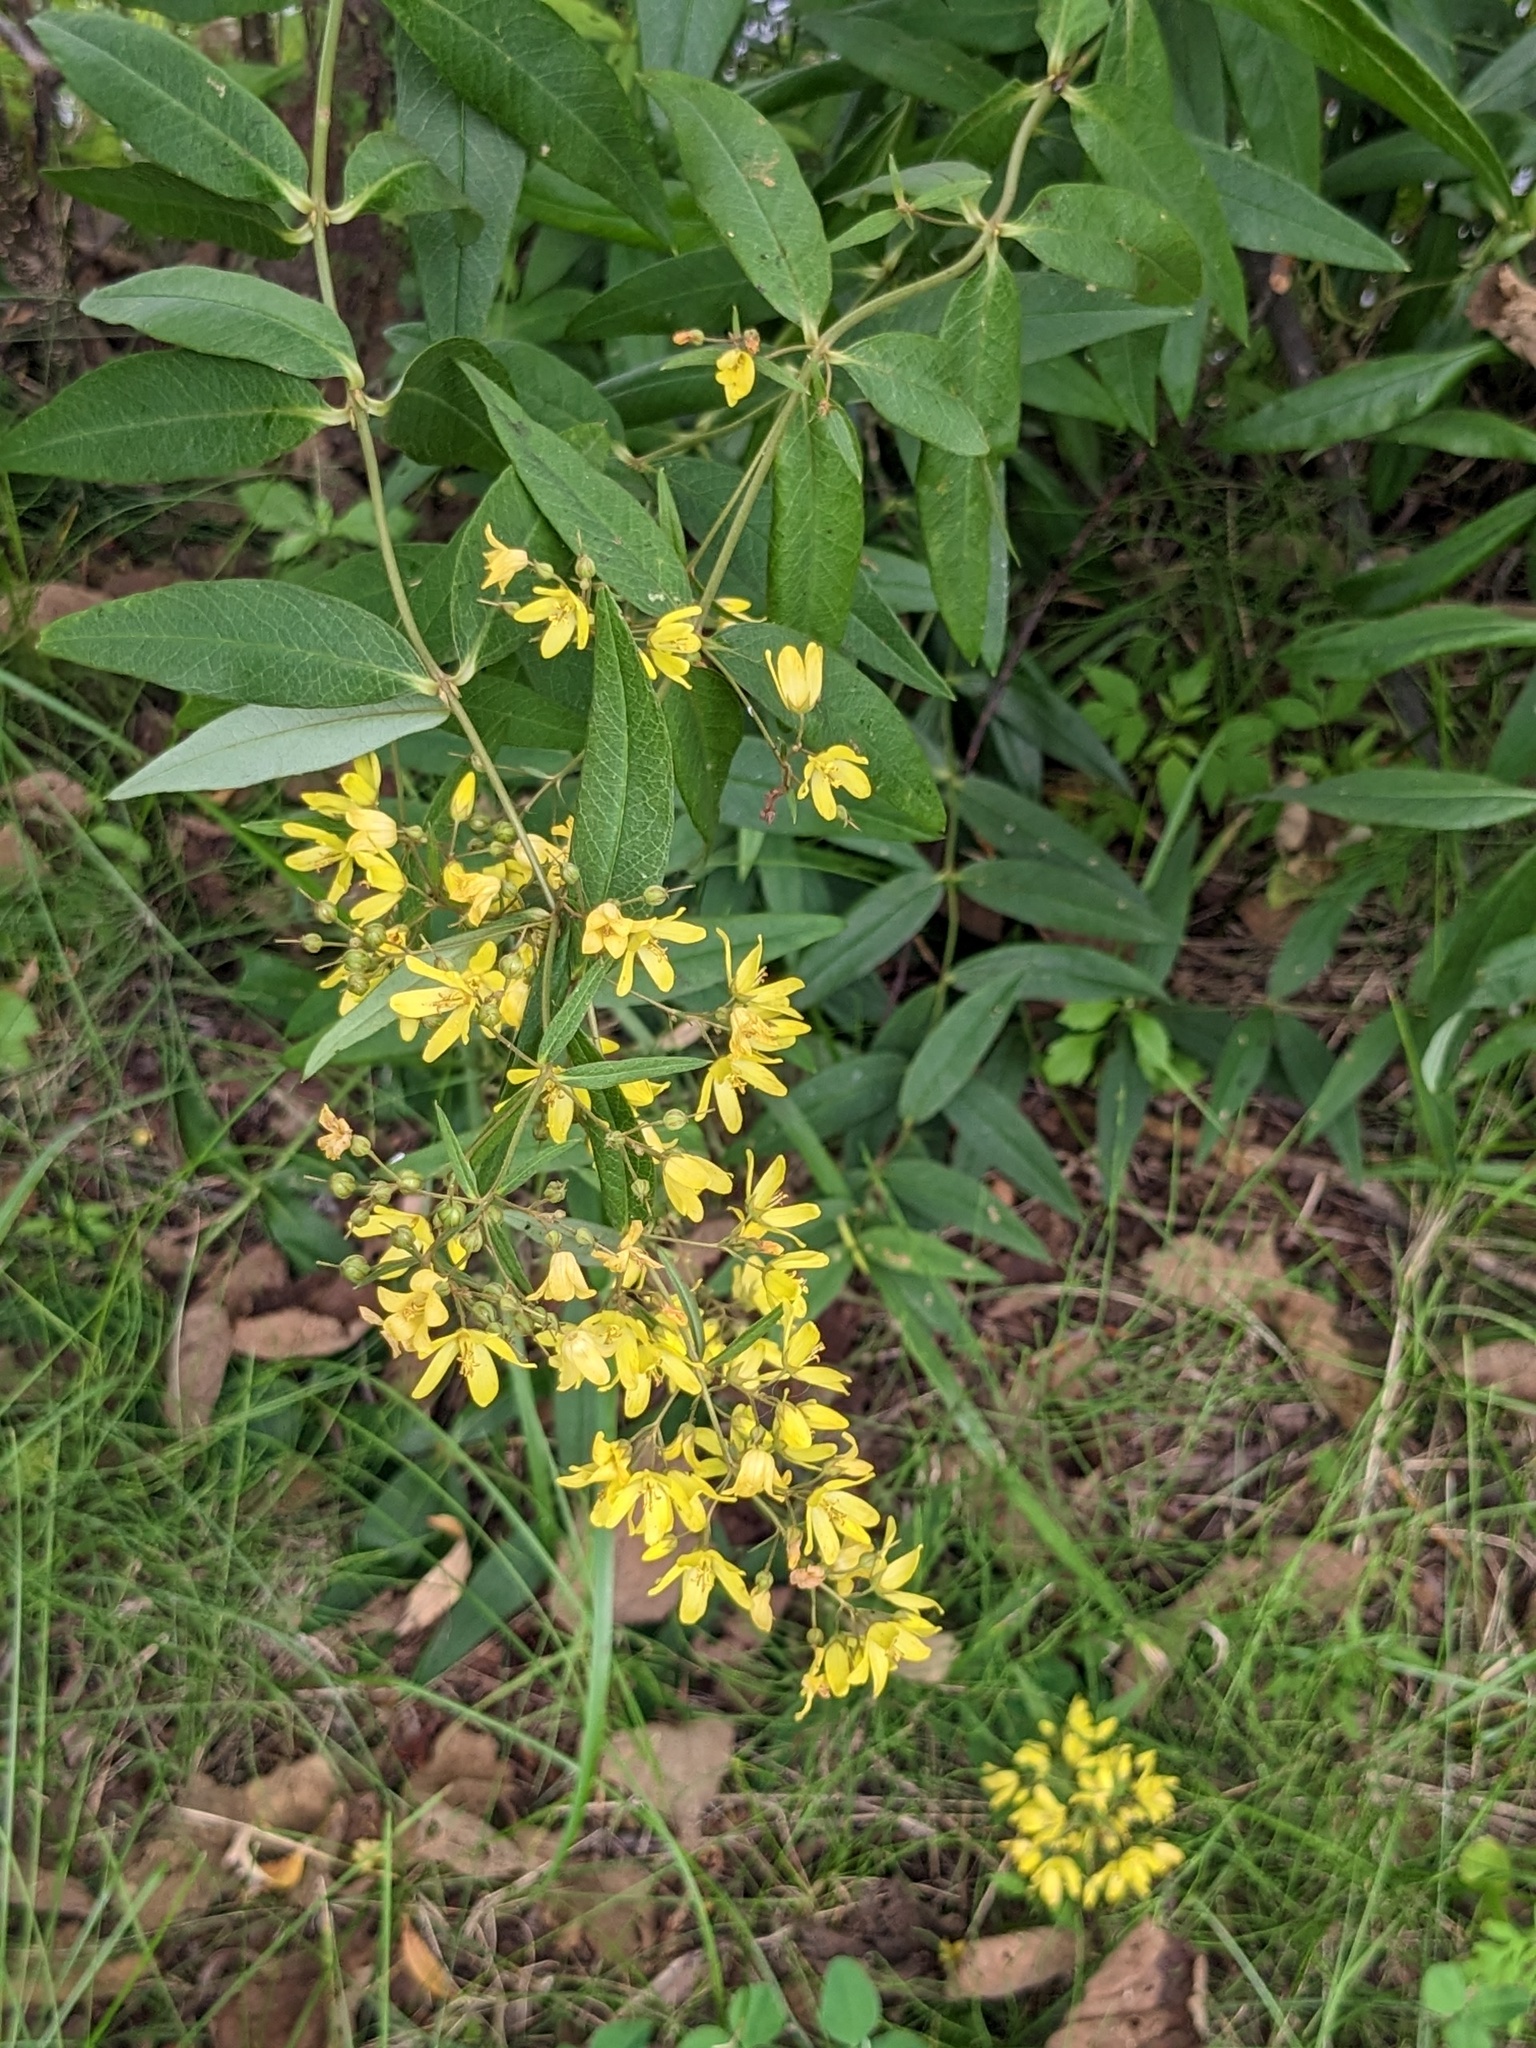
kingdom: Plantae
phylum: Tracheophyta
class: Magnoliopsida
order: Ericales
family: Primulaceae
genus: Lysimachia
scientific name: Lysimachia davurica
